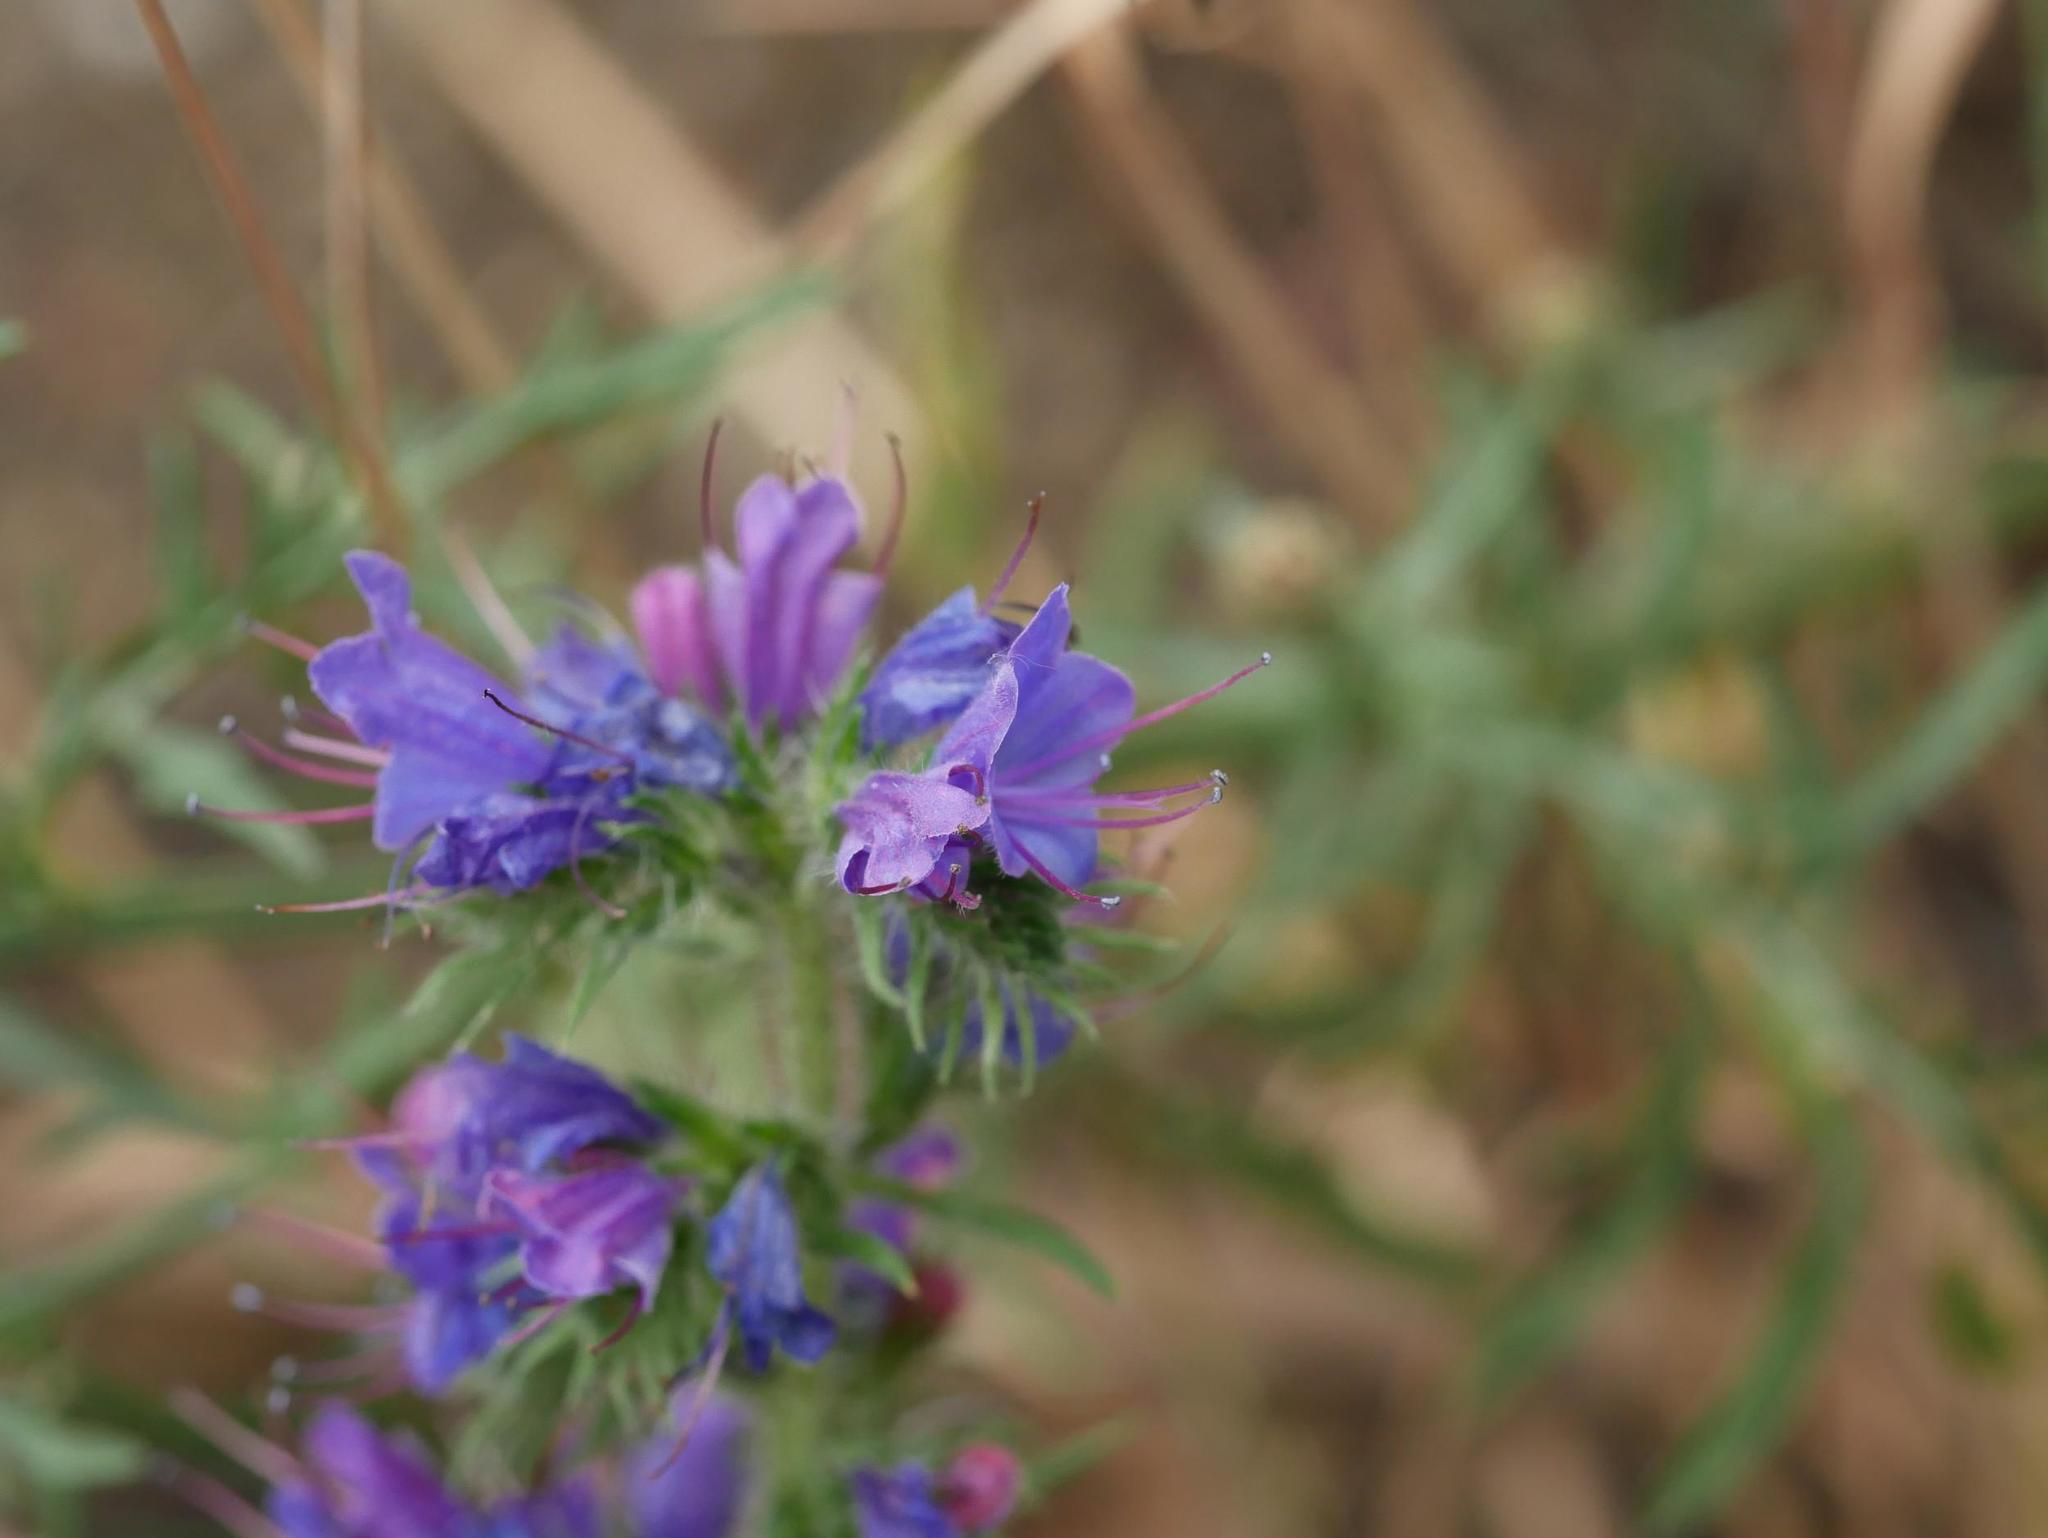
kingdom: Plantae
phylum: Tracheophyta
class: Magnoliopsida
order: Boraginales
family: Boraginaceae
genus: Echium
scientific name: Echium vulgare
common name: Common viper's bugloss
